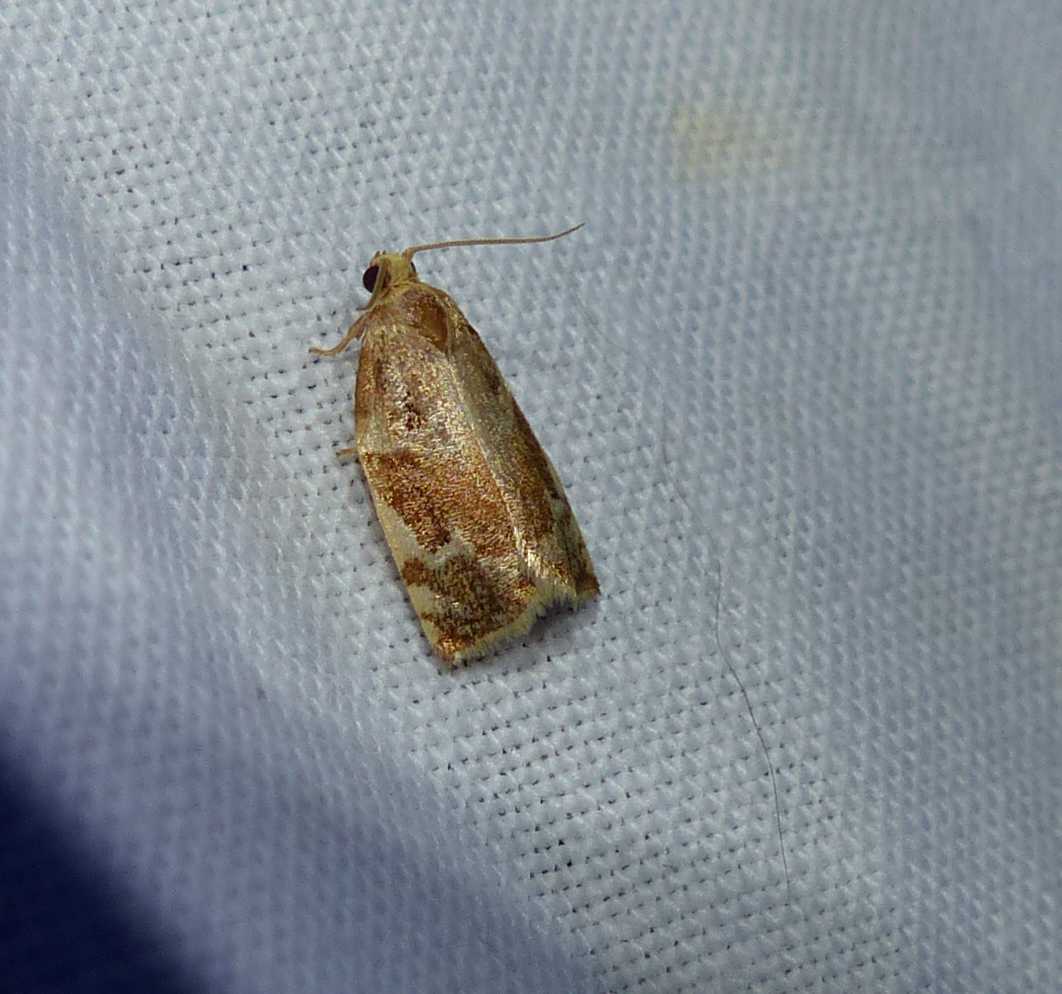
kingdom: Animalia
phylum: Arthropoda
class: Insecta
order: Lepidoptera
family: Tortricidae
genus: Archips
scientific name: Archips semiferanus
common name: Oak leafroller
